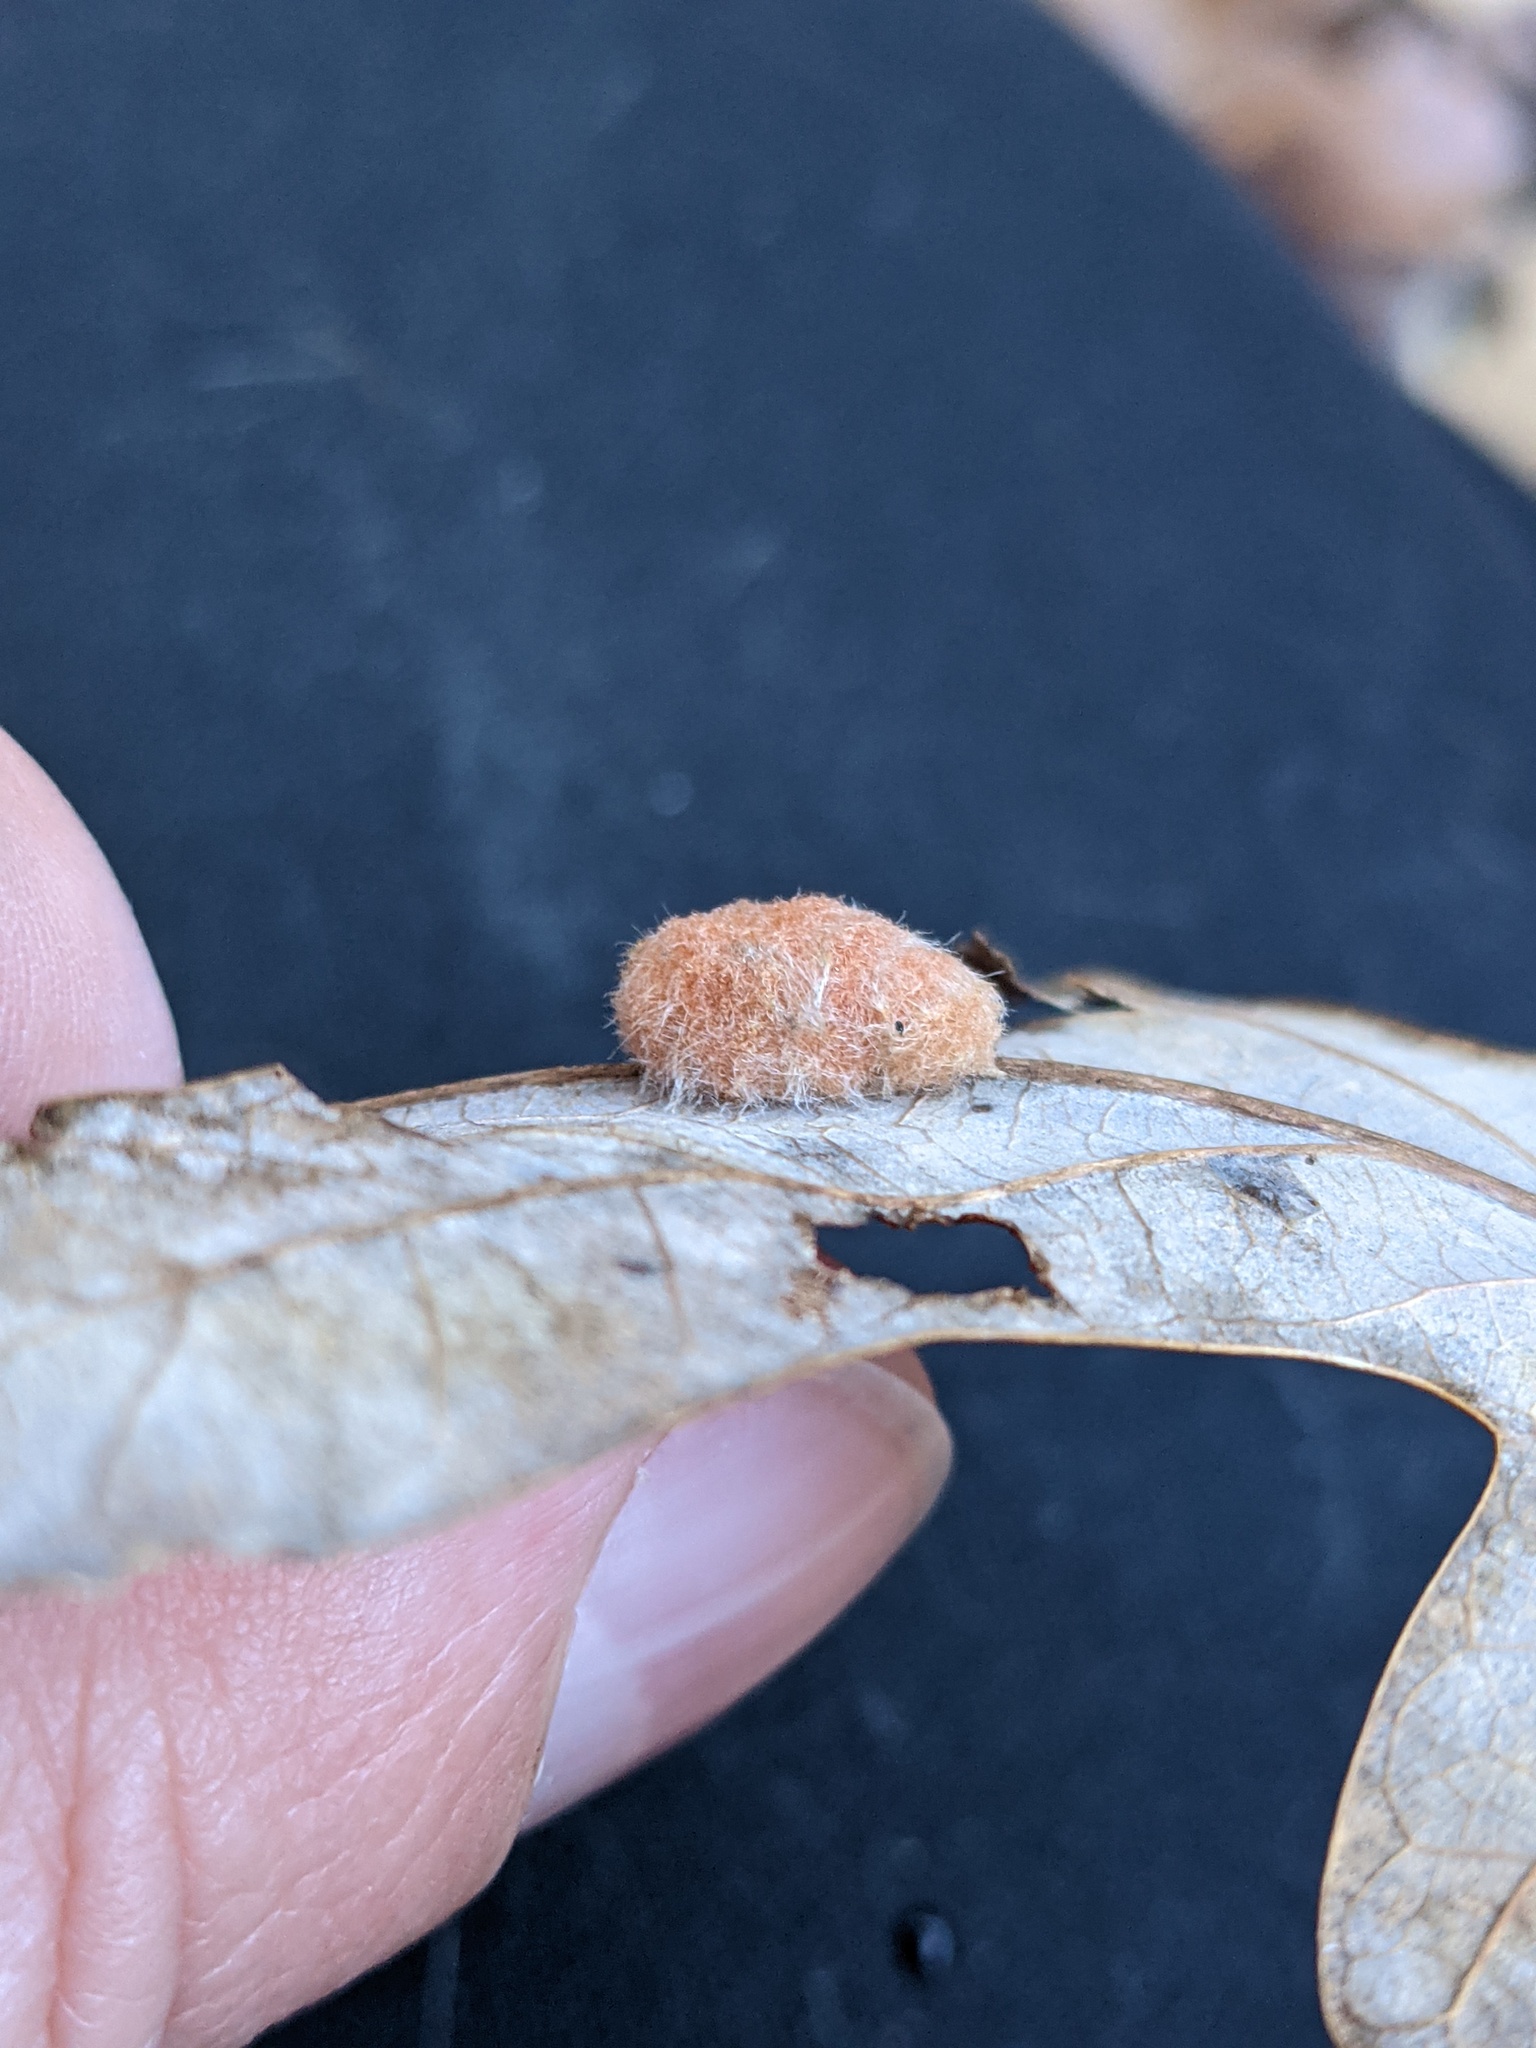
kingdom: Animalia
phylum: Arthropoda
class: Insecta
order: Hymenoptera
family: Cynipidae
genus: Andricus
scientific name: Andricus quercusflocci
